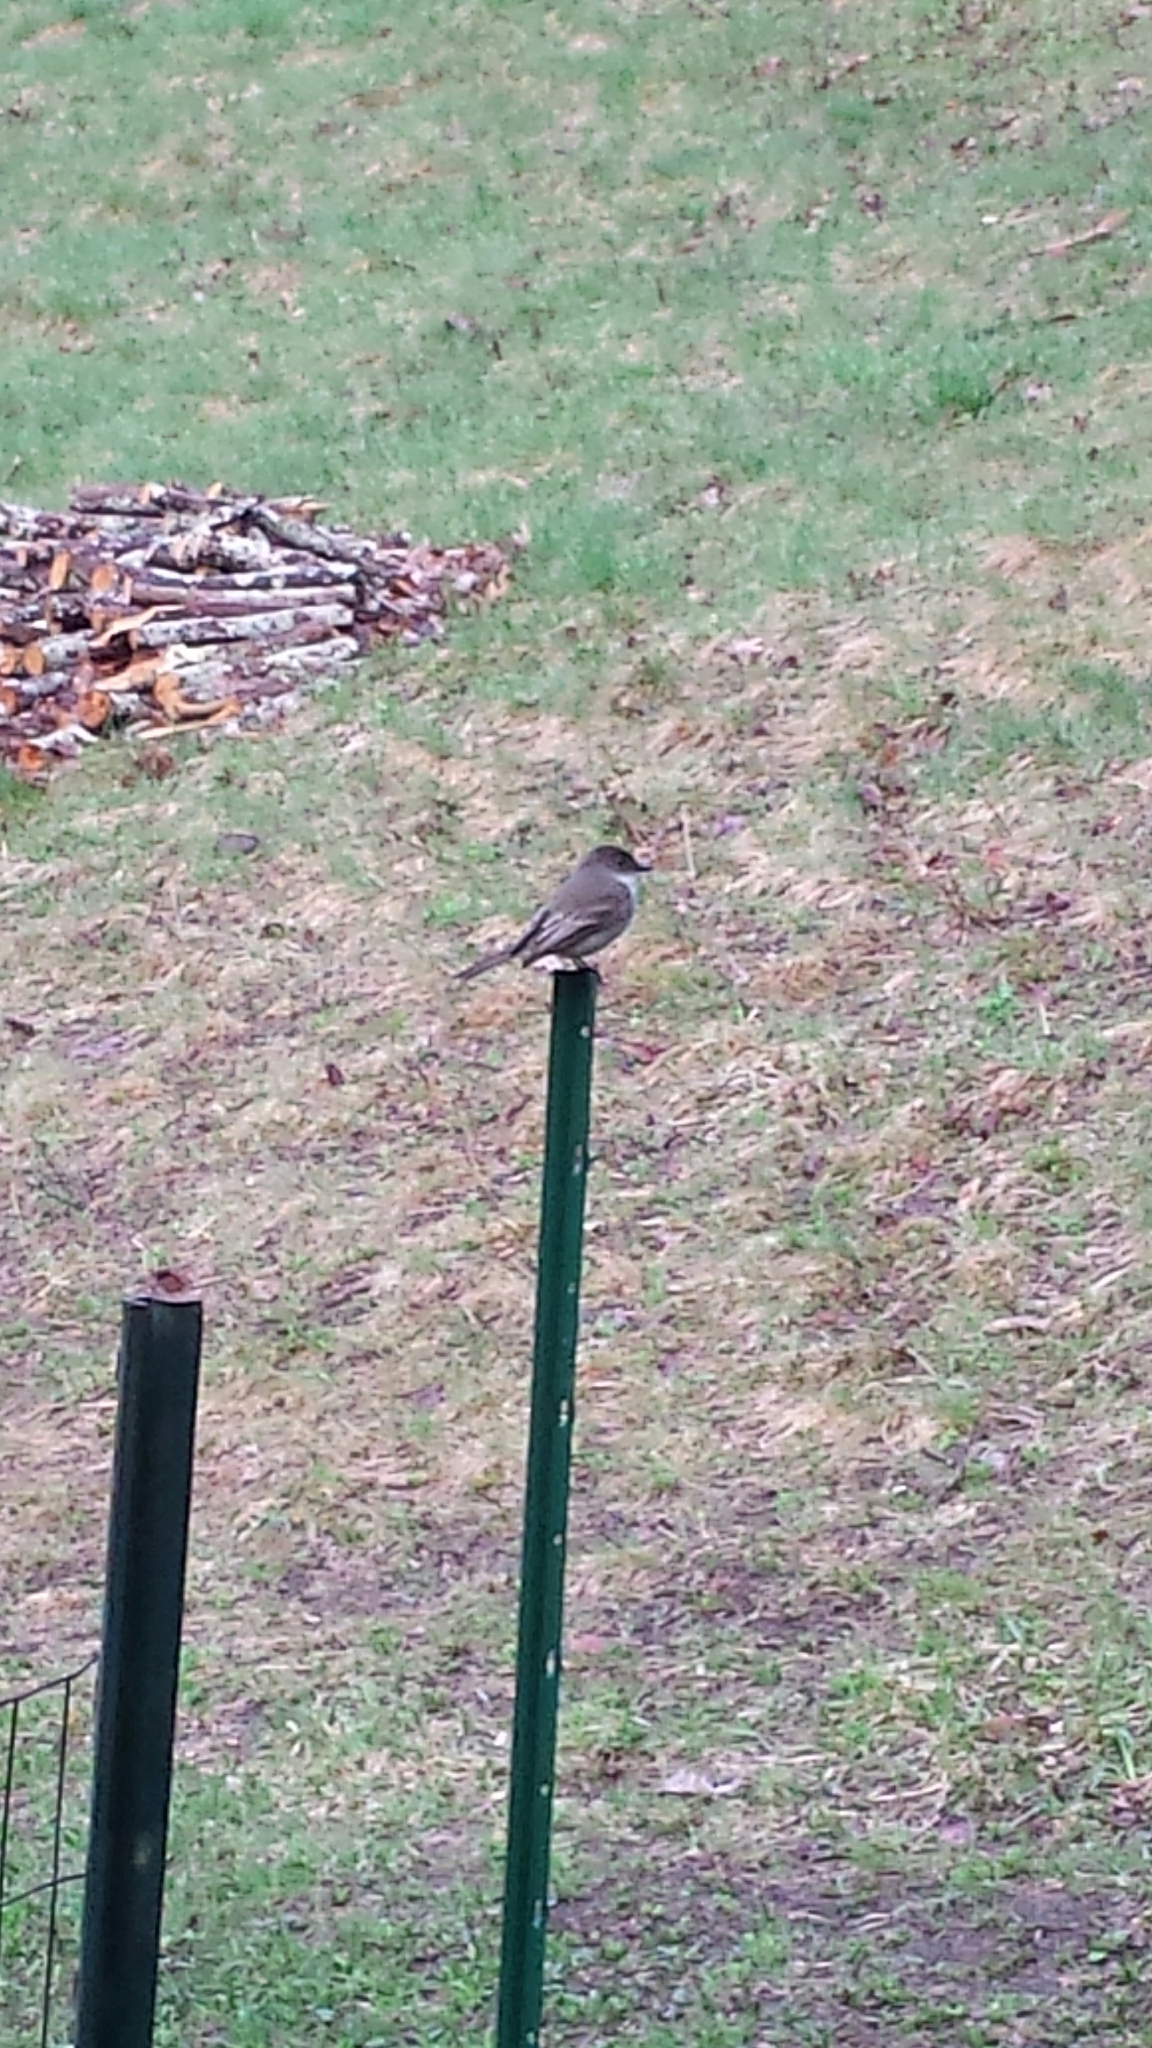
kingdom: Animalia
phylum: Chordata
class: Aves
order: Passeriformes
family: Tyrannidae
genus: Sayornis
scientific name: Sayornis phoebe
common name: Eastern phoebe
